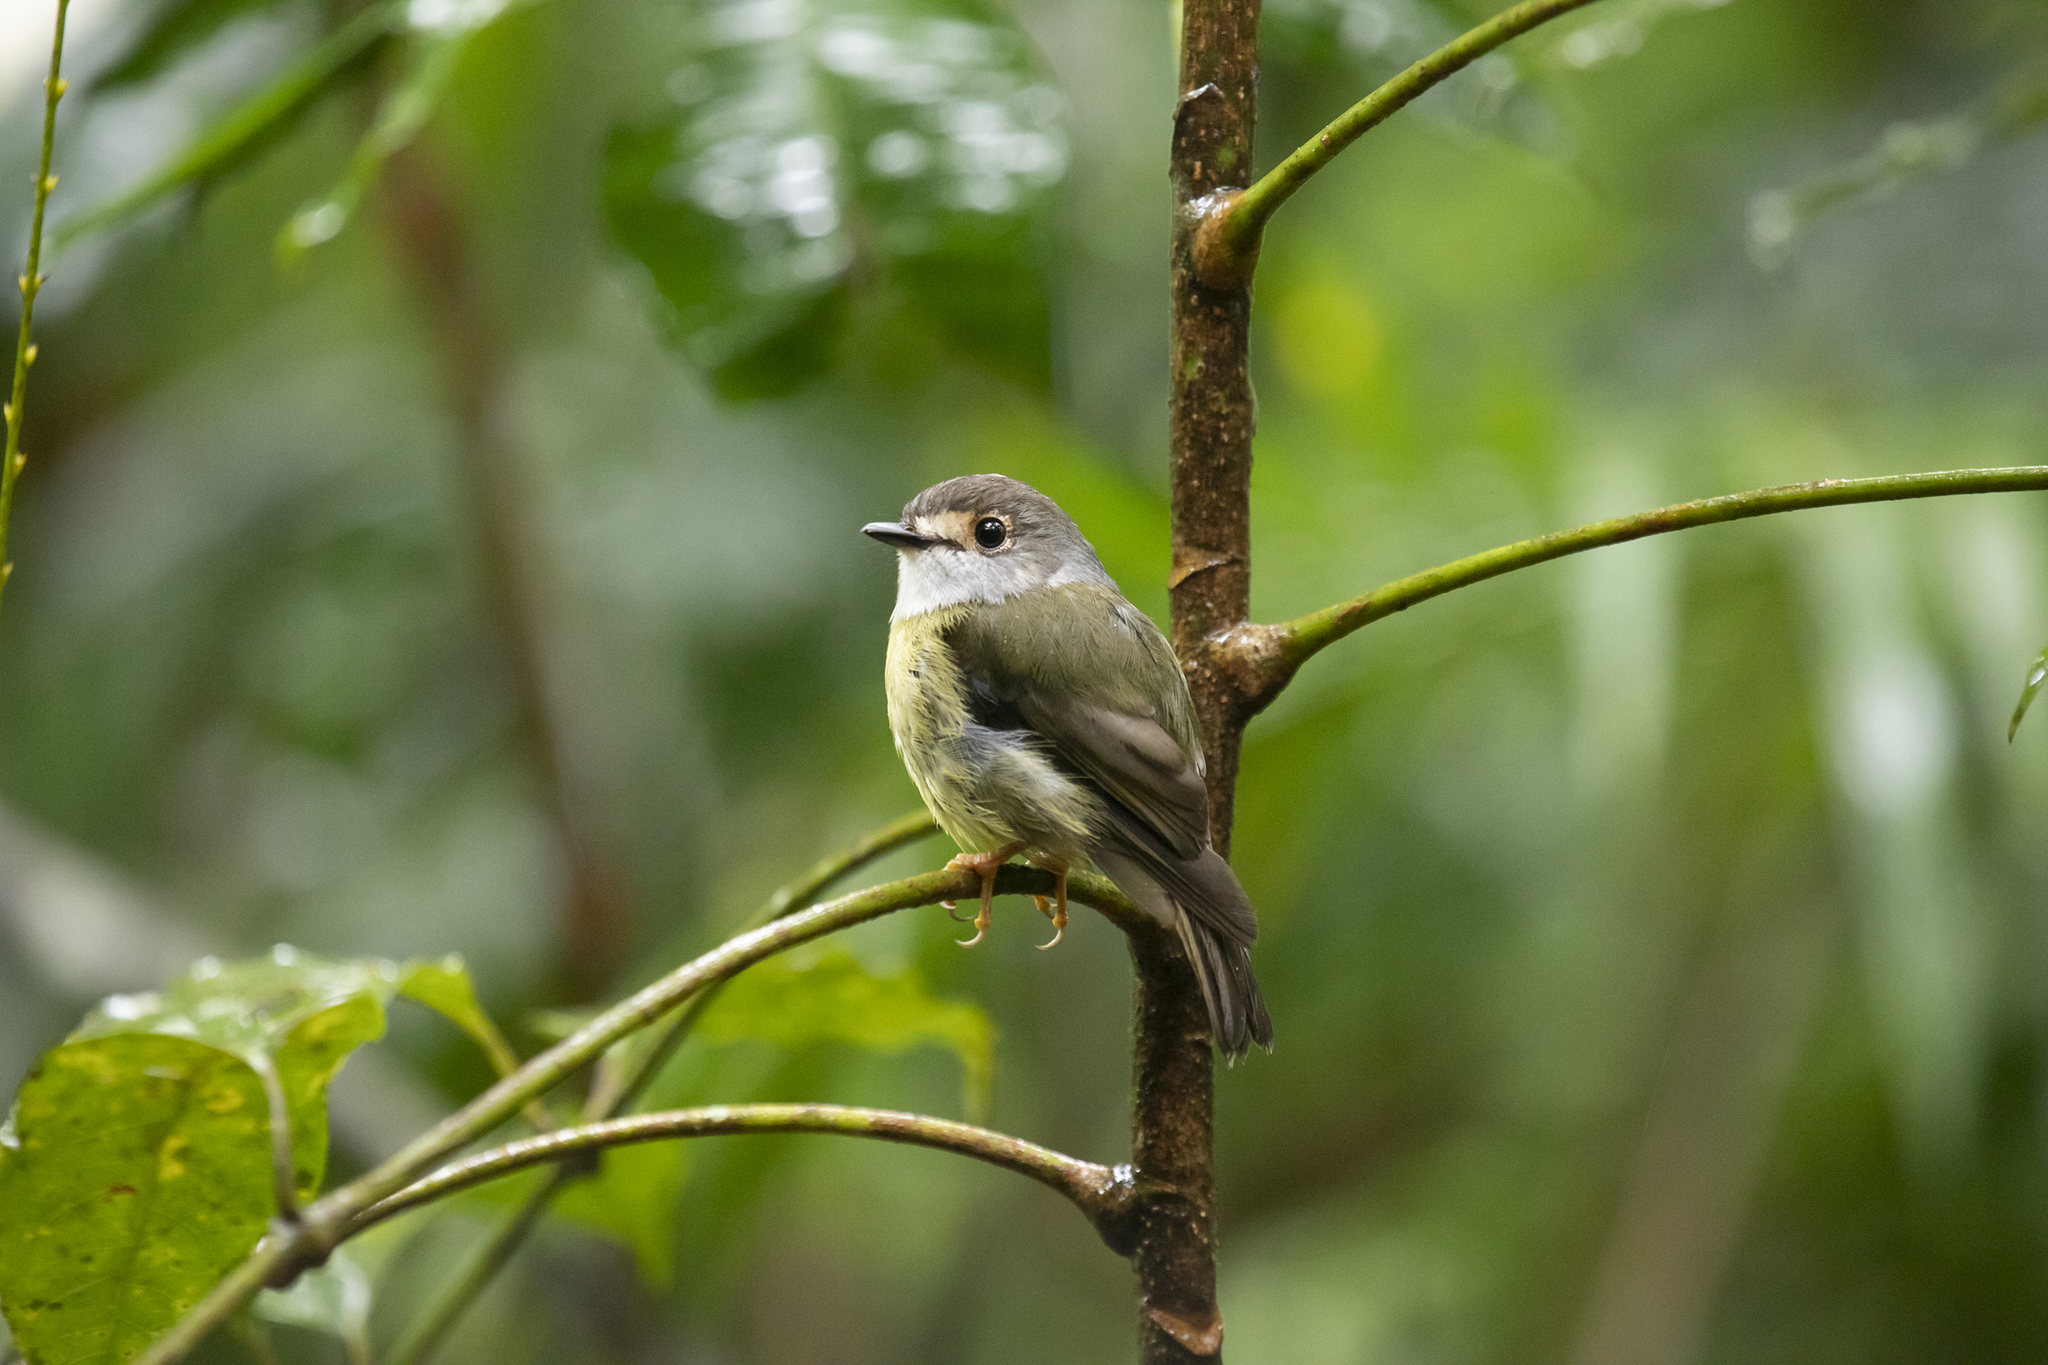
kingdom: Animalia
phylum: Chordata
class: Aves
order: Passeriformes
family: Petroicidae
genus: Eopsaltria
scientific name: Eopsaltria
